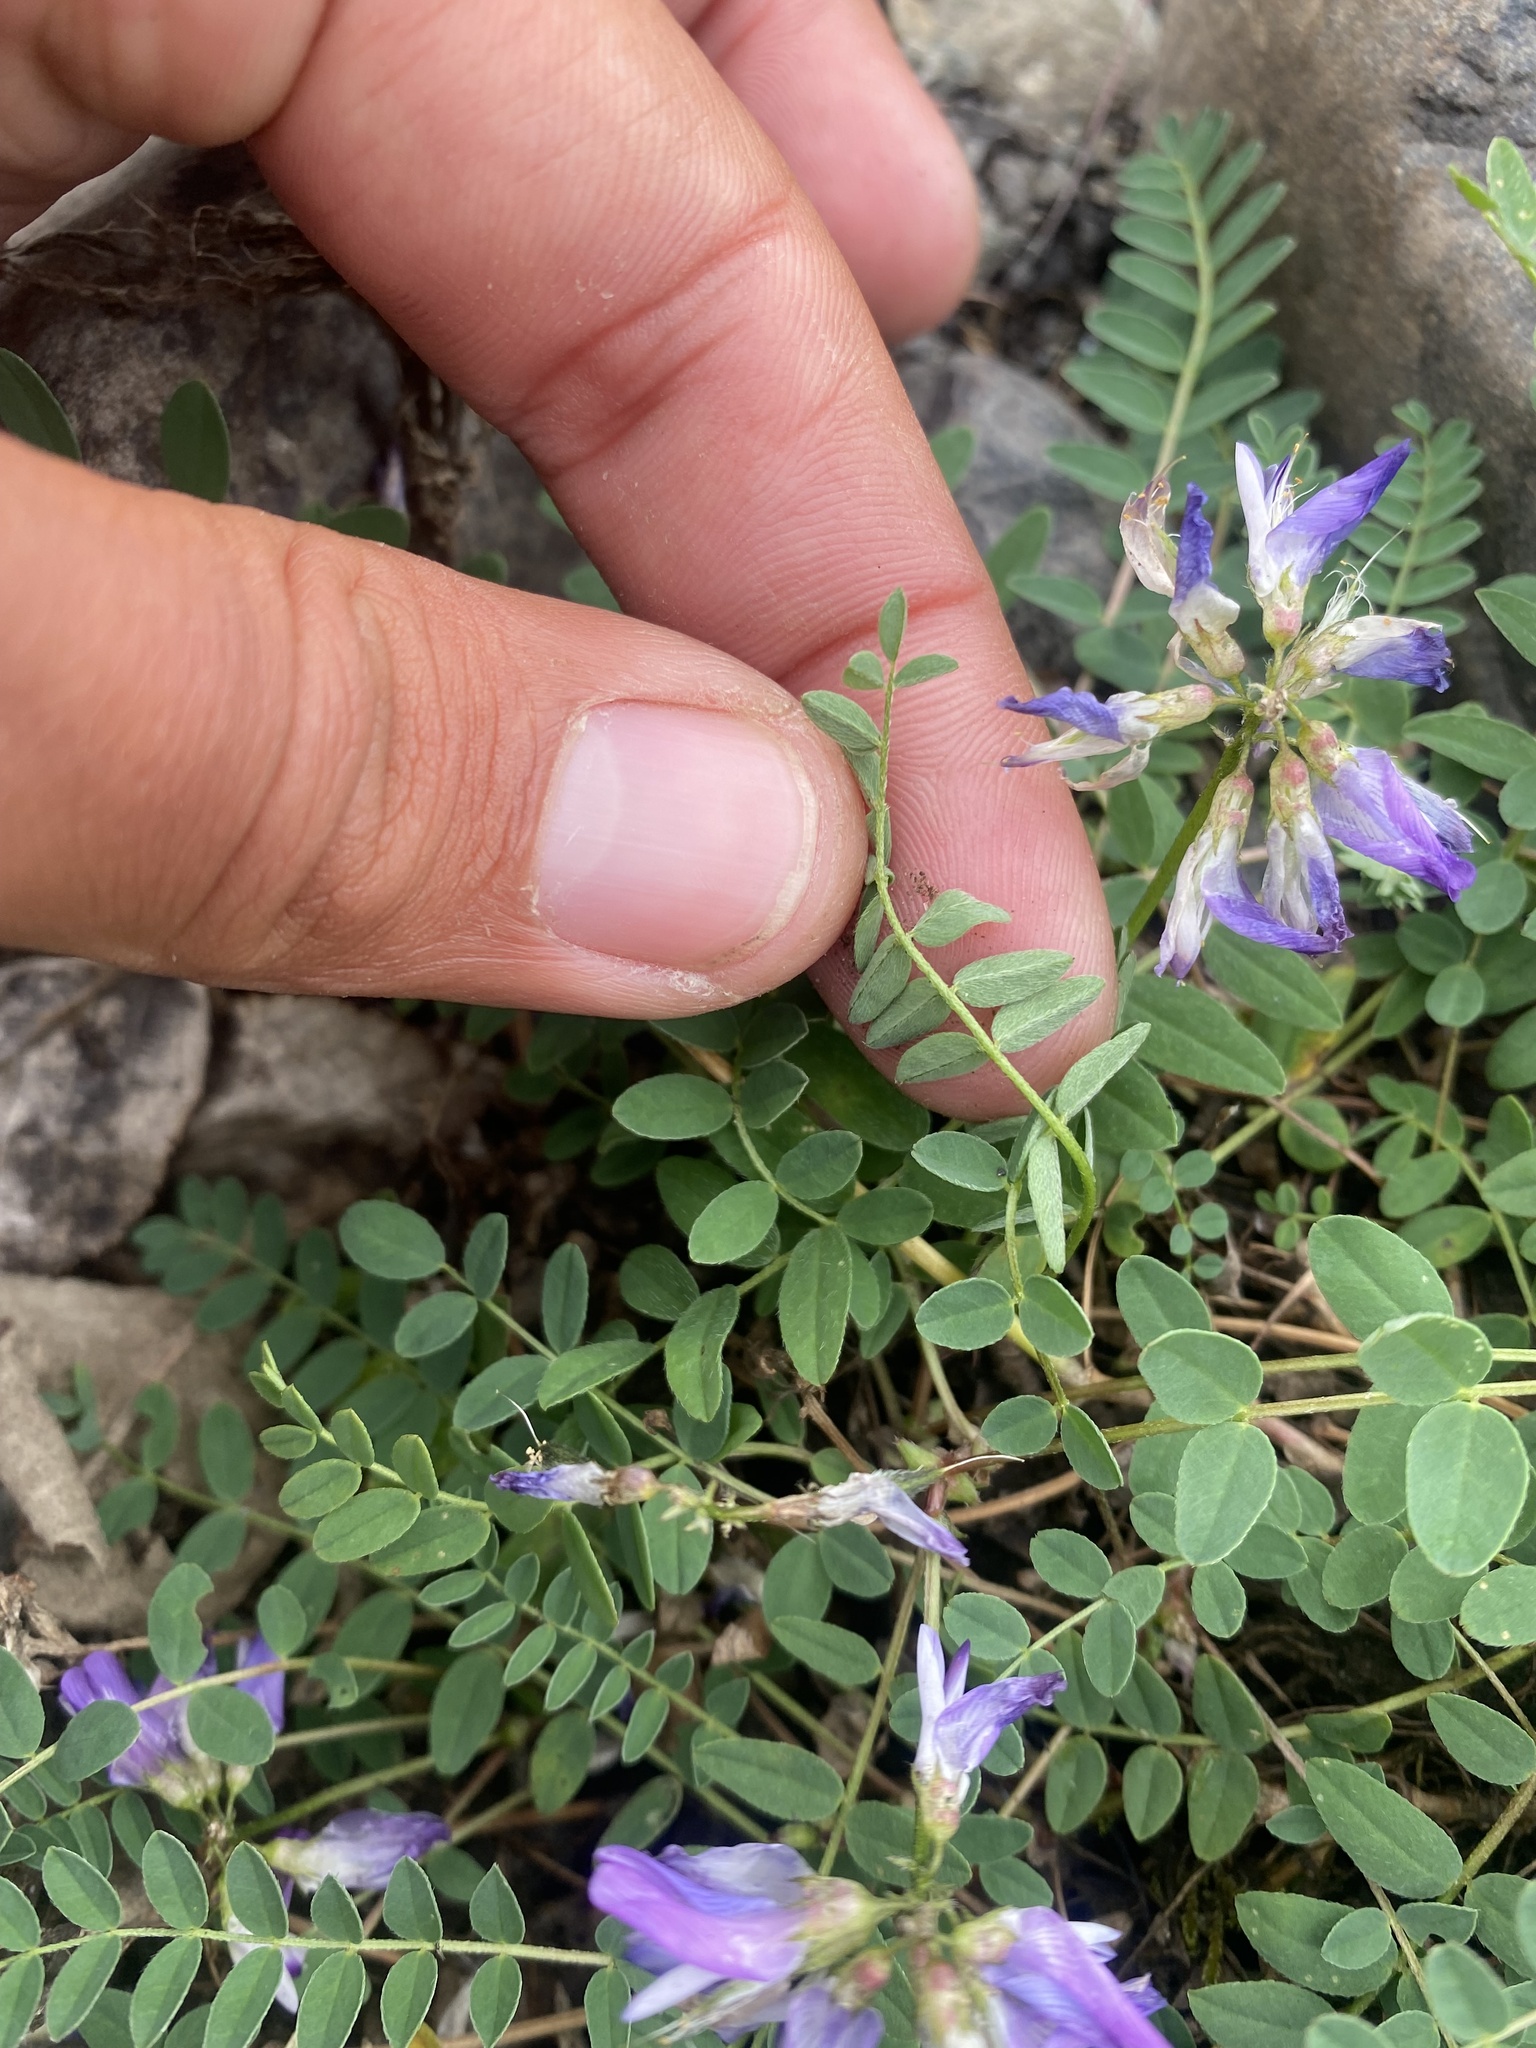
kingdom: Plantae
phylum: Tracheophyta
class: Magnoliopsida
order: Fabales
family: Fabaceae
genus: Astragalus
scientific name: Astragalus alpinus
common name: Alpine milk-vetch
